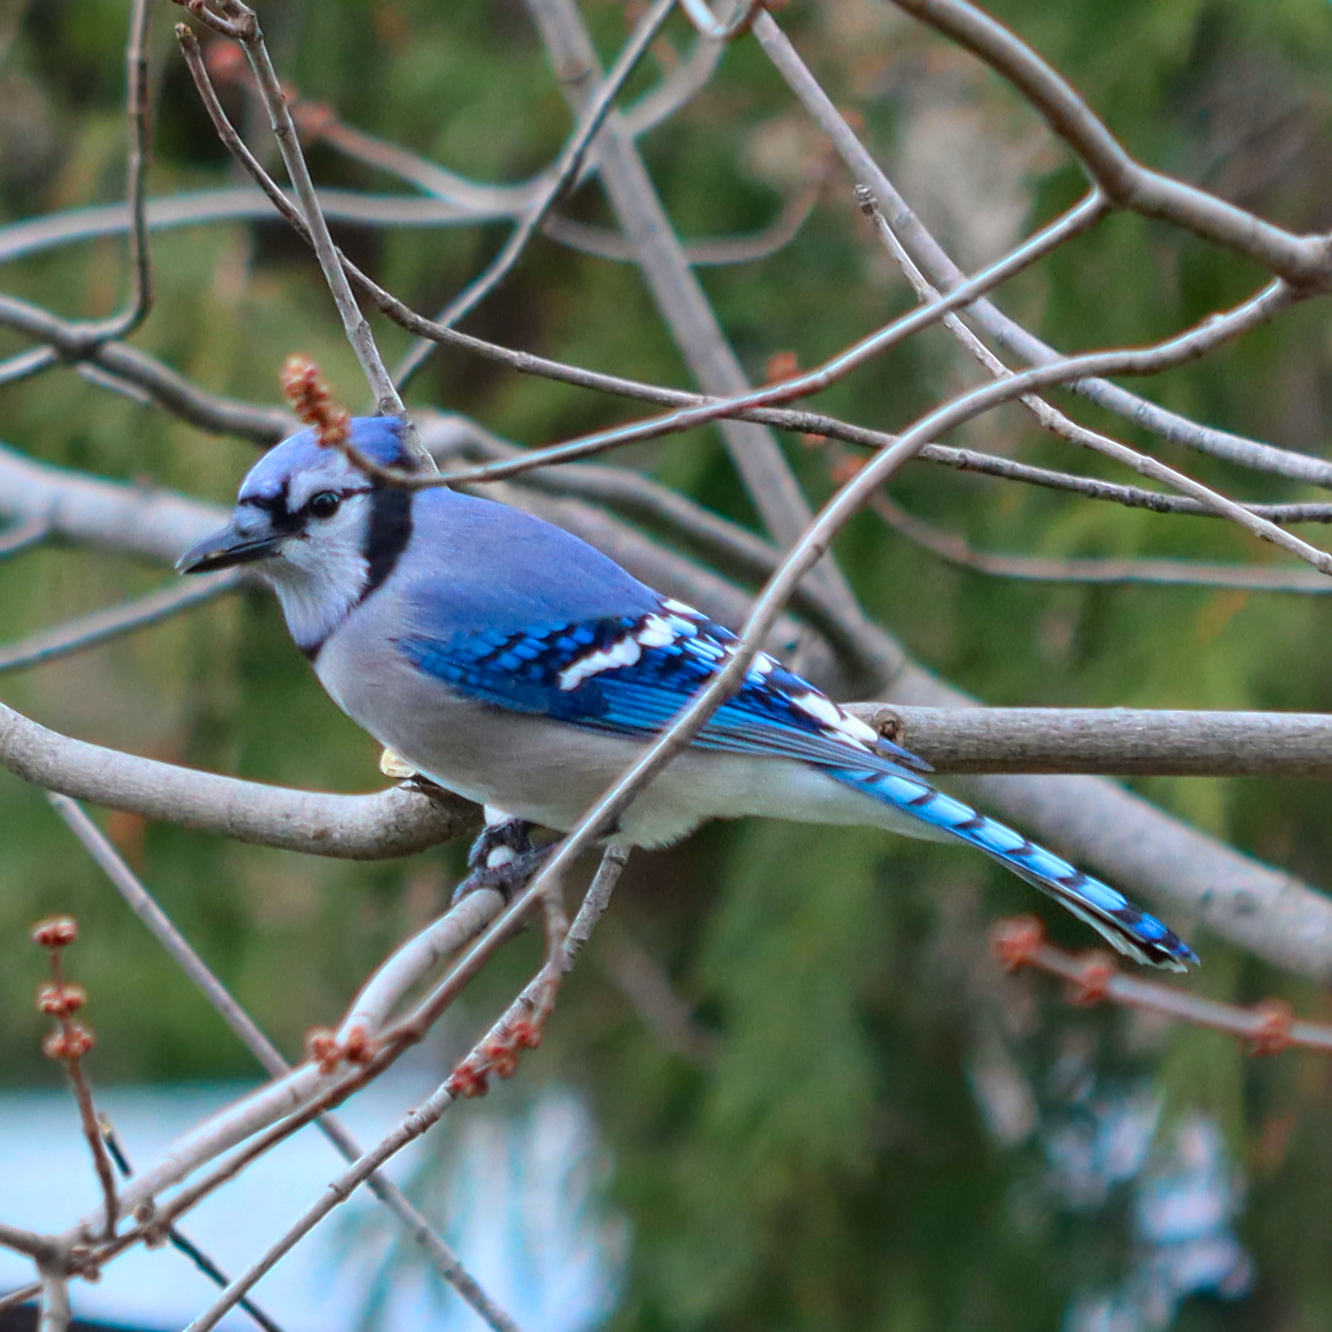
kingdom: Animalia
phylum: Chordata
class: Aves
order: Passeriformes
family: Corvidae
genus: Cyanocitta
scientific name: Cyanocitta cristata
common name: Blue jay
